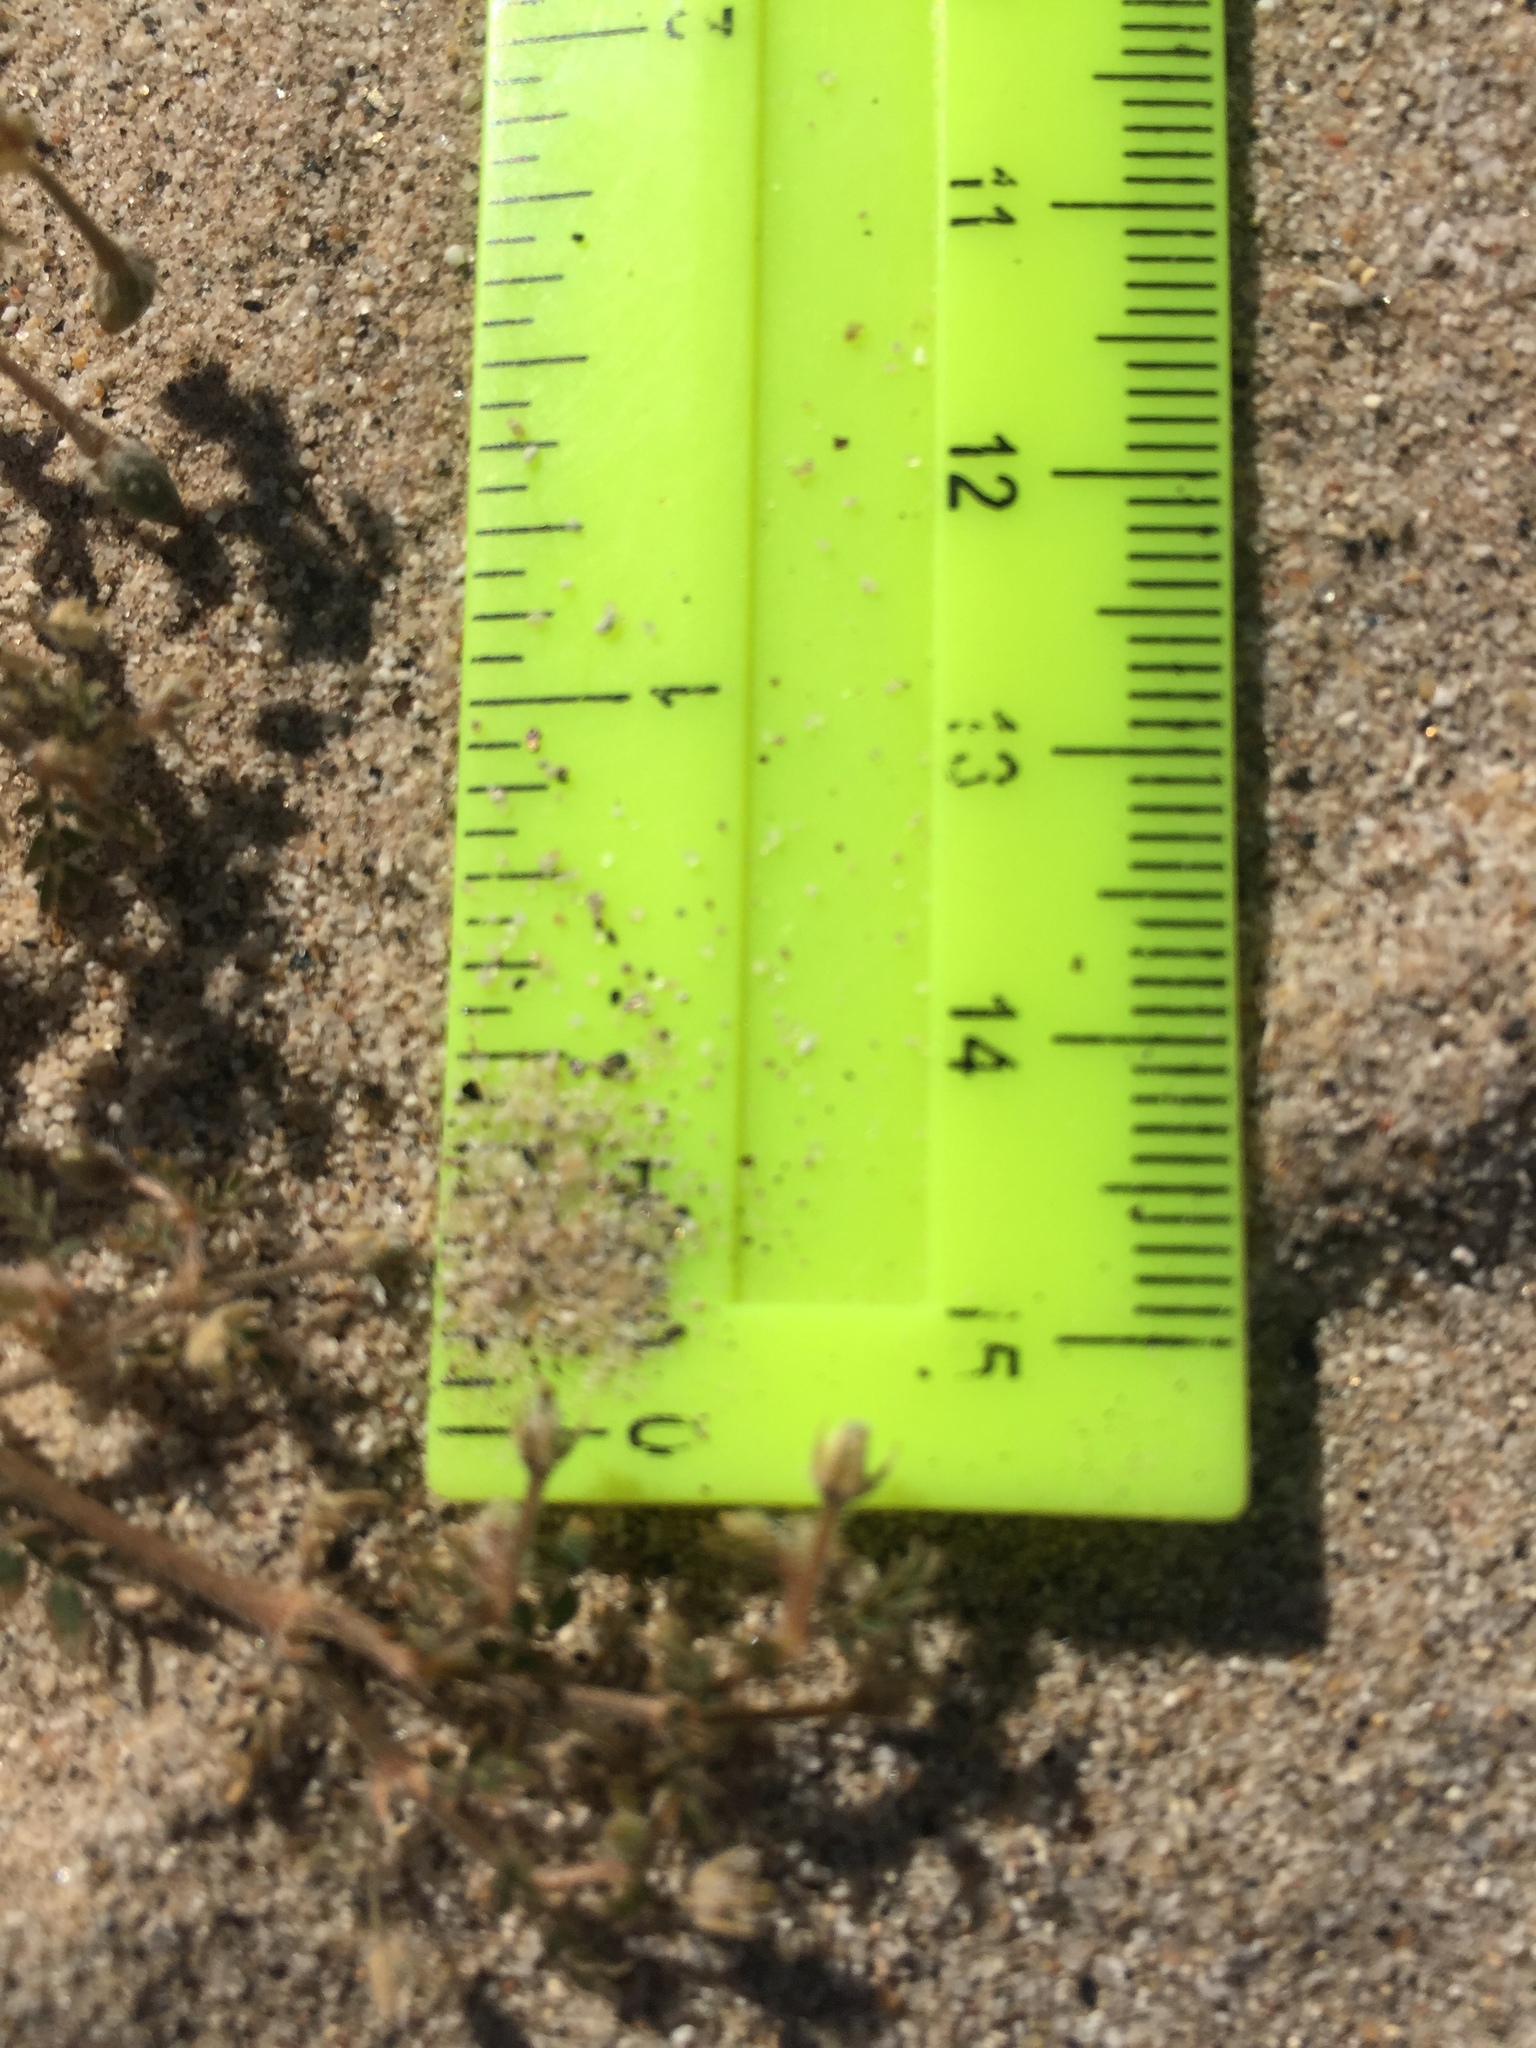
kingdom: Plantae
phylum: Tracheophyta
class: Magnoliopsida
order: Zygophyllales
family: Zygophyllaceae
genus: Kallstroemia
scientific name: Kallstroemia californica
